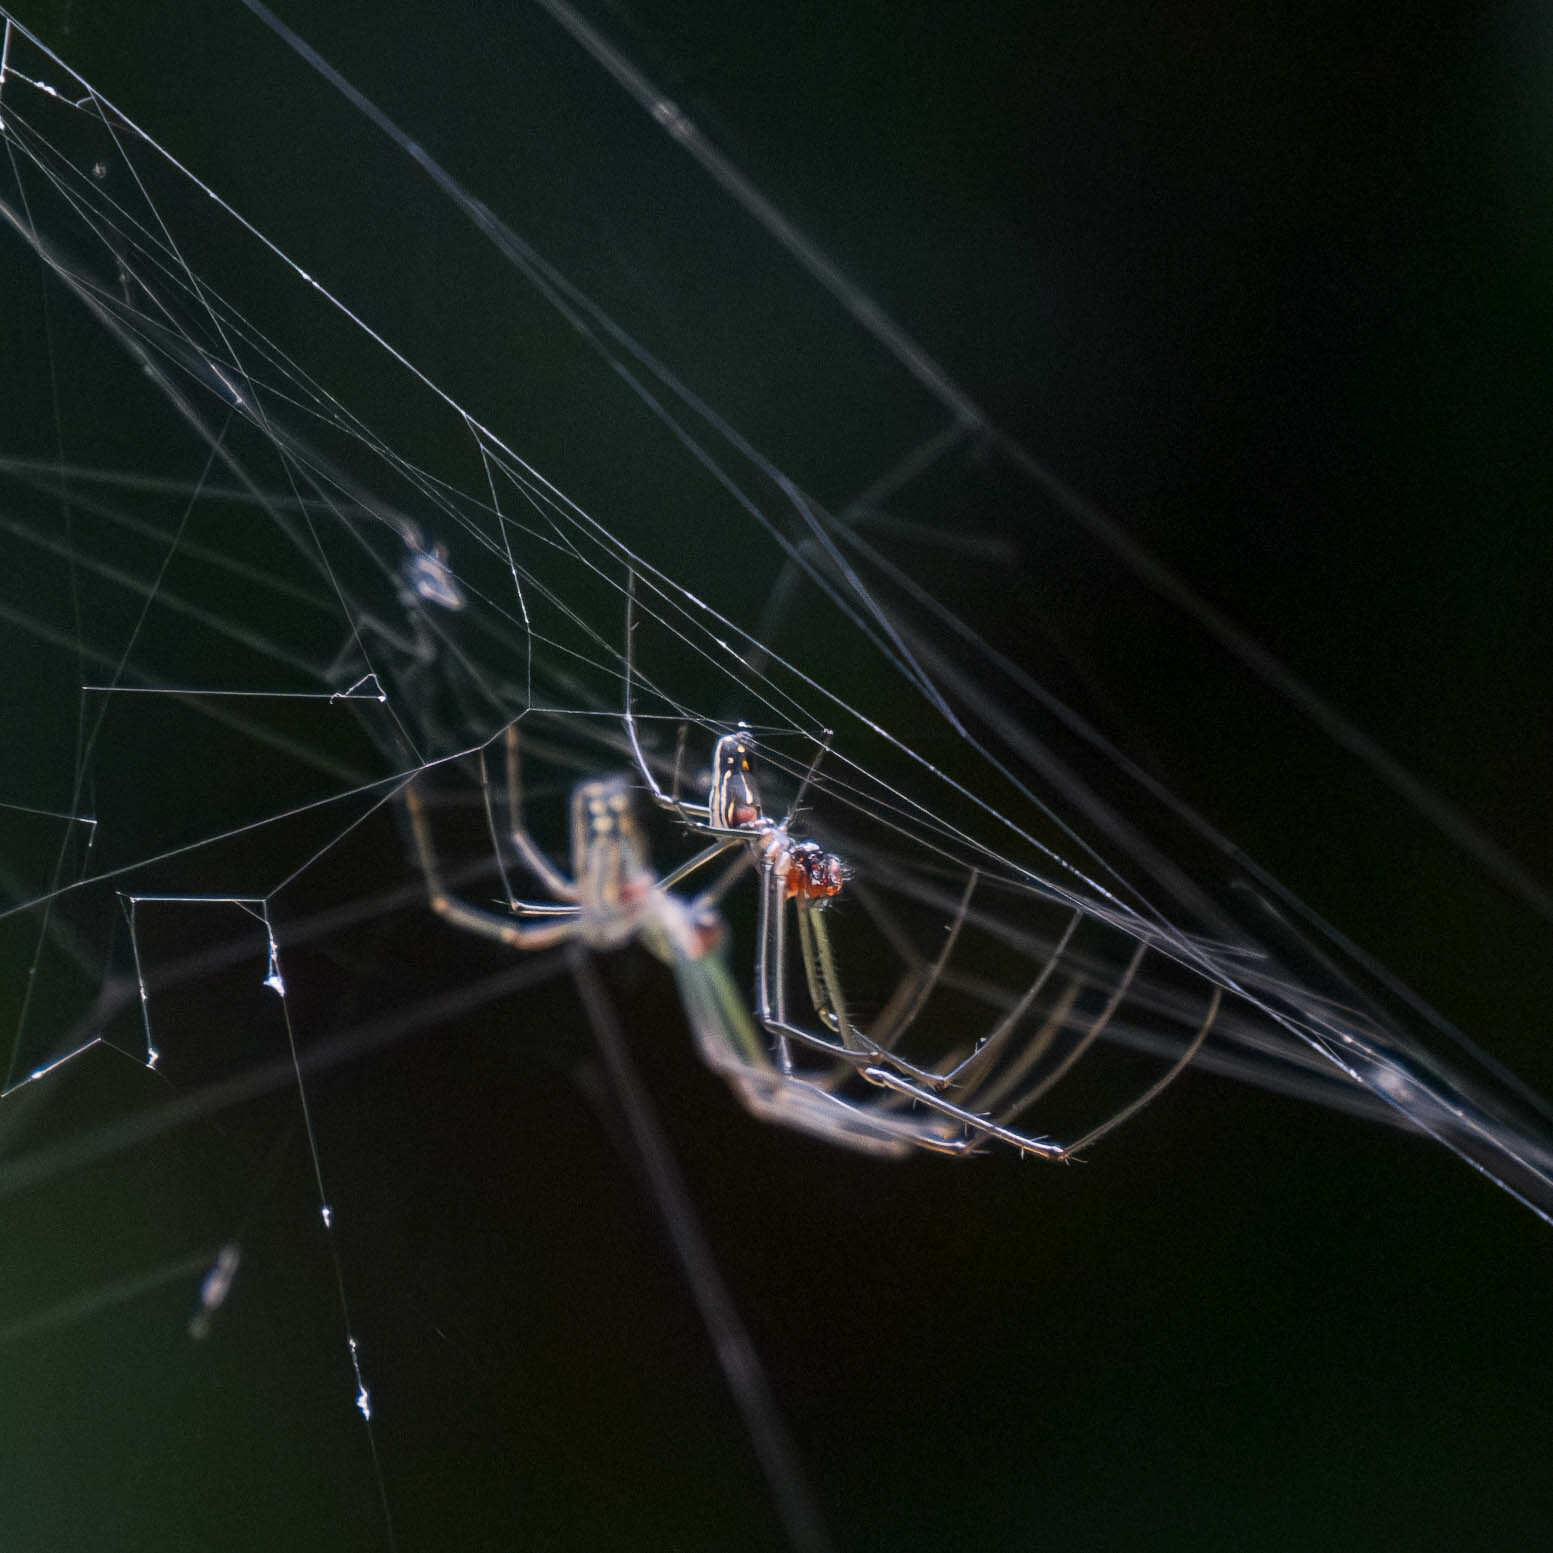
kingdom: Animalia
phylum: Arthropoda
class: Arachnida
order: Araneae
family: Tetragnathidae
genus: Leucauge
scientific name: Leucauge argyra
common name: Longjawed orb weavers
